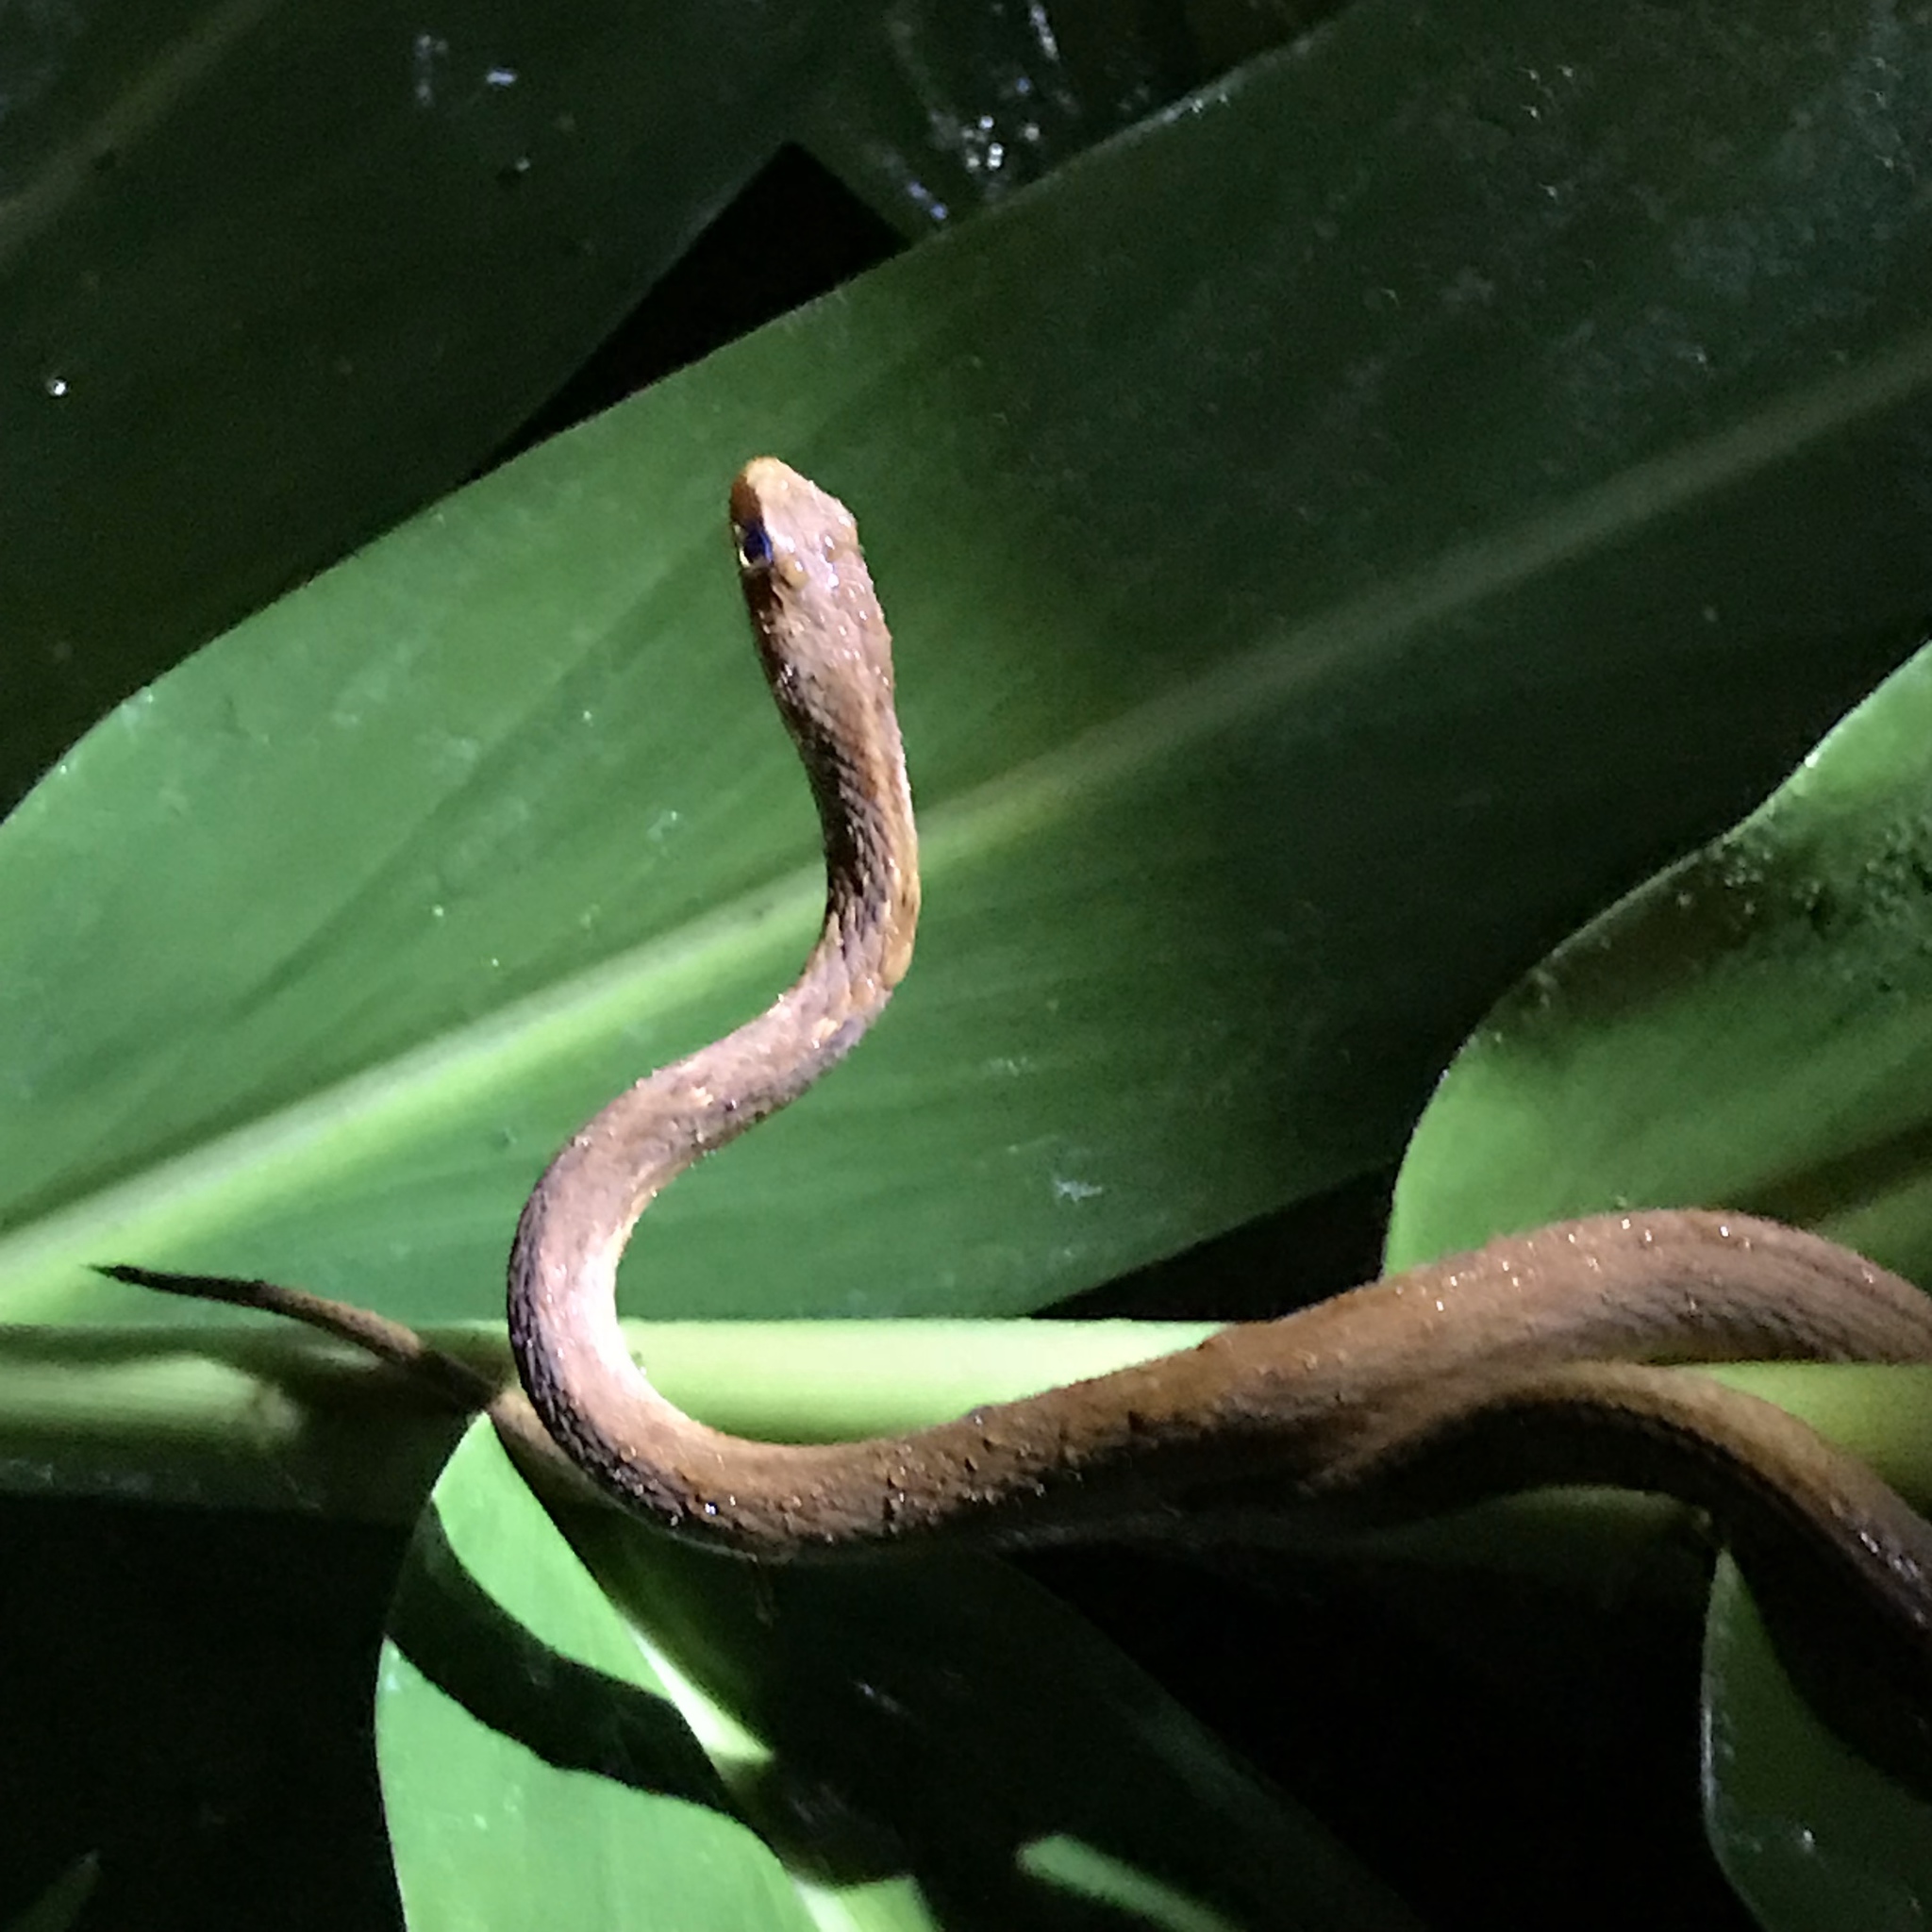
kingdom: Animalia
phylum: Chordata
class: Squamata
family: Colubridae
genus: Chironius
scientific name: Chironius fuscus
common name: Brown sipo
